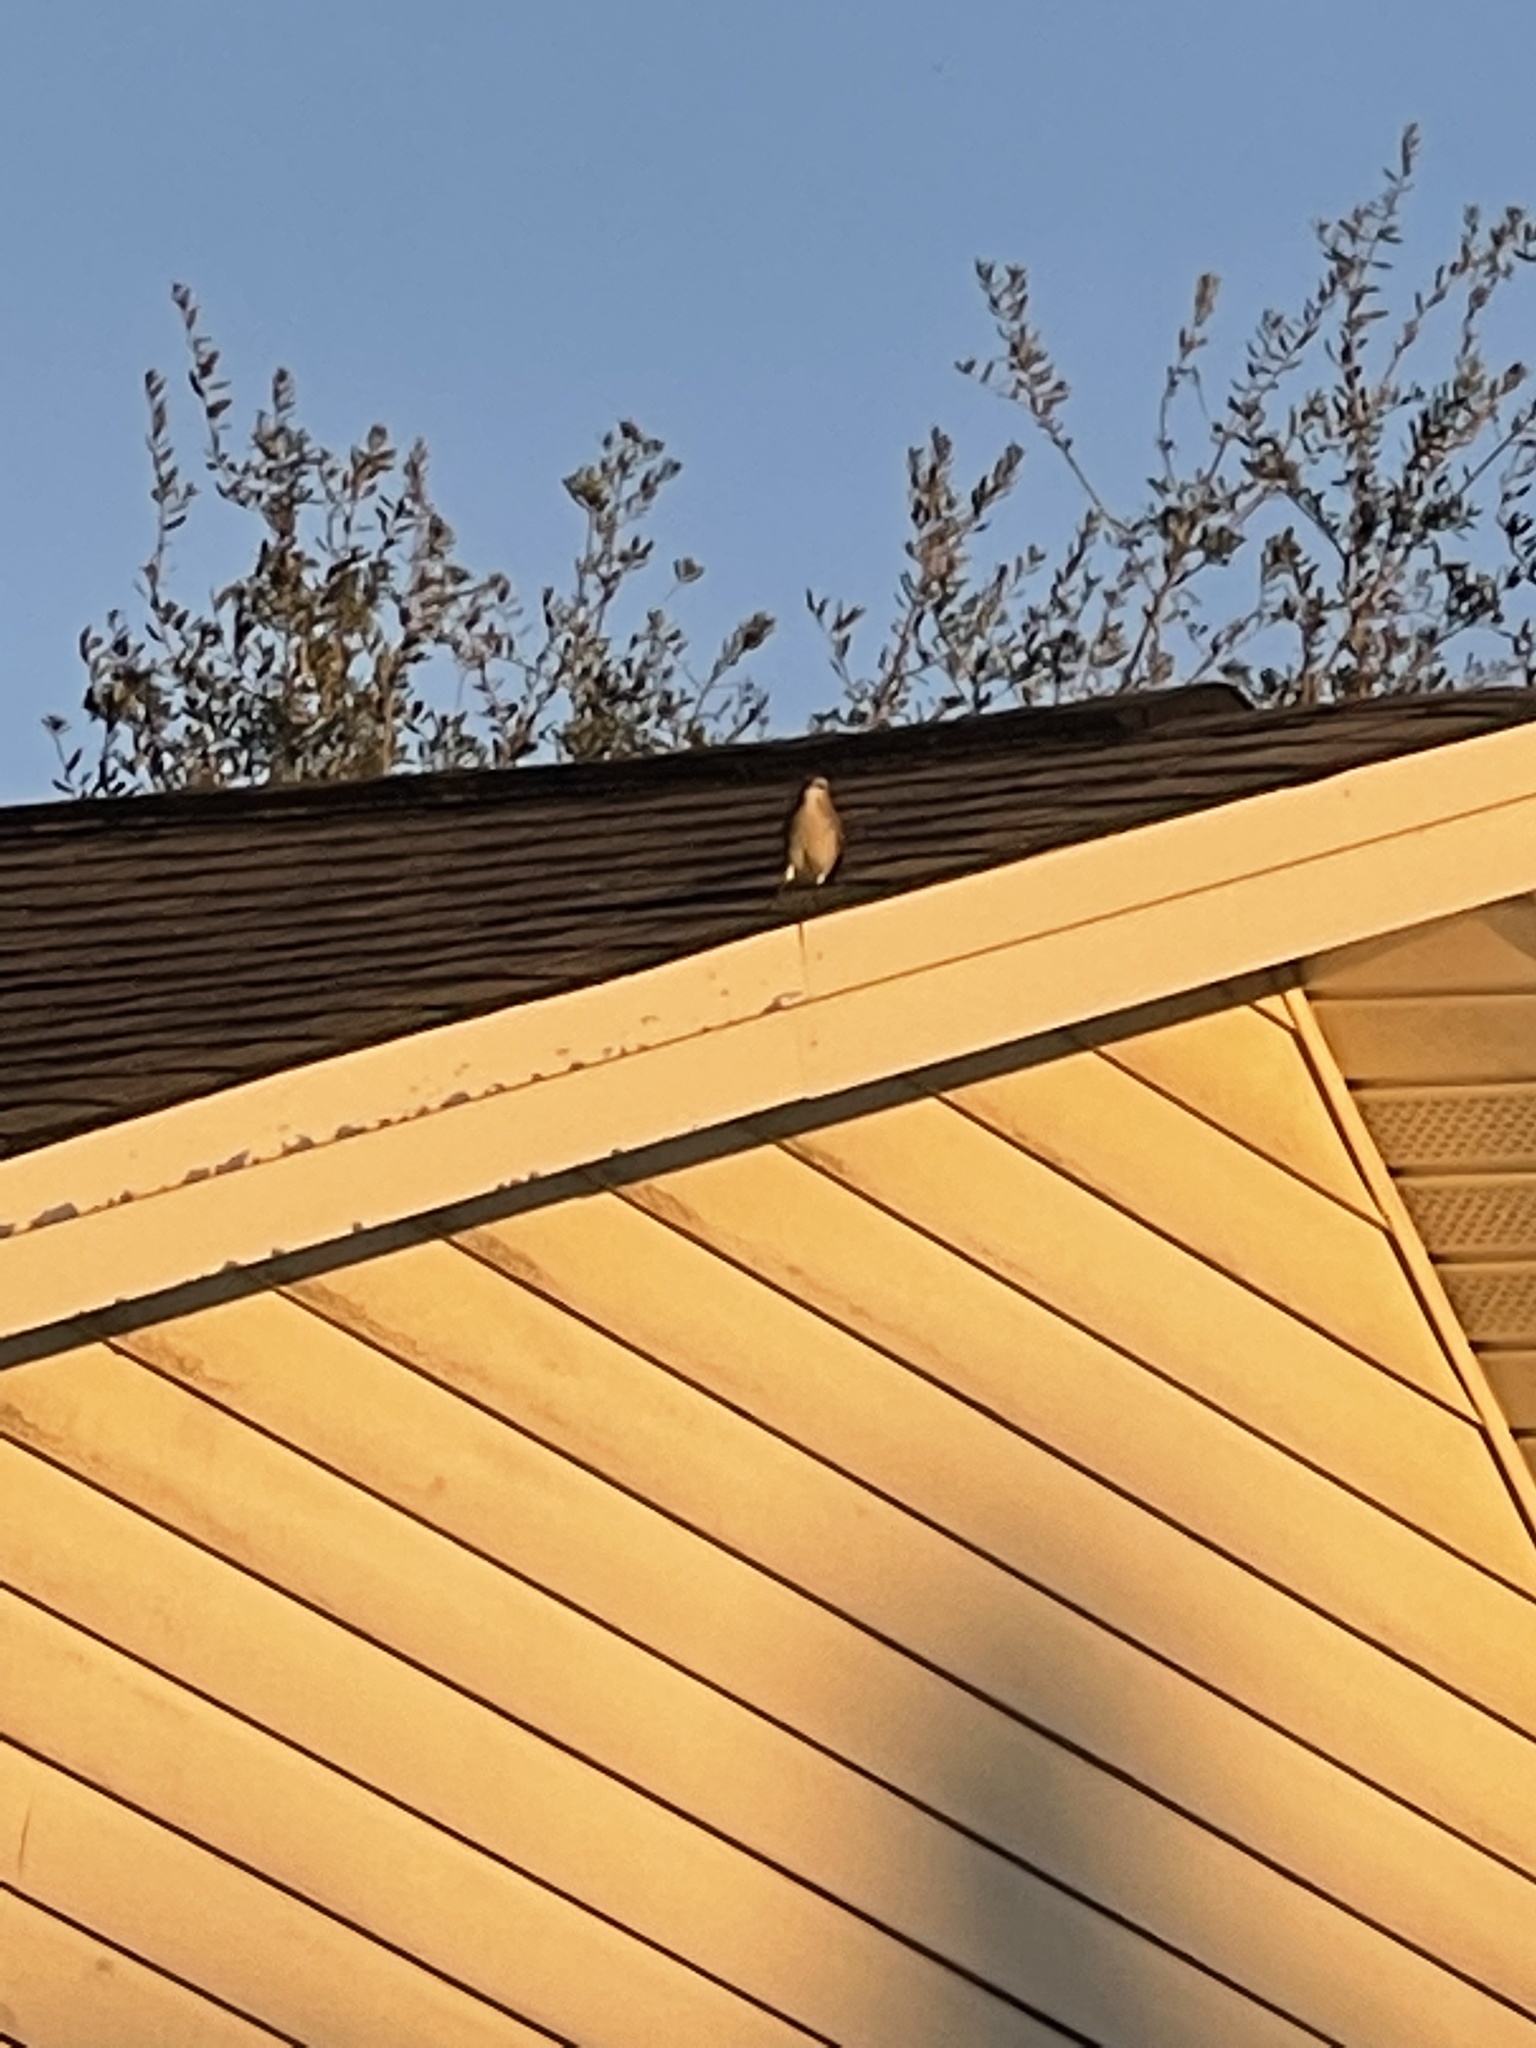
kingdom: Animalia
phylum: Chordata
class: Aves
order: Passeriformes
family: Mimidae
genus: Mimus
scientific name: Mimus polyglottos
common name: Northern mockingbird
